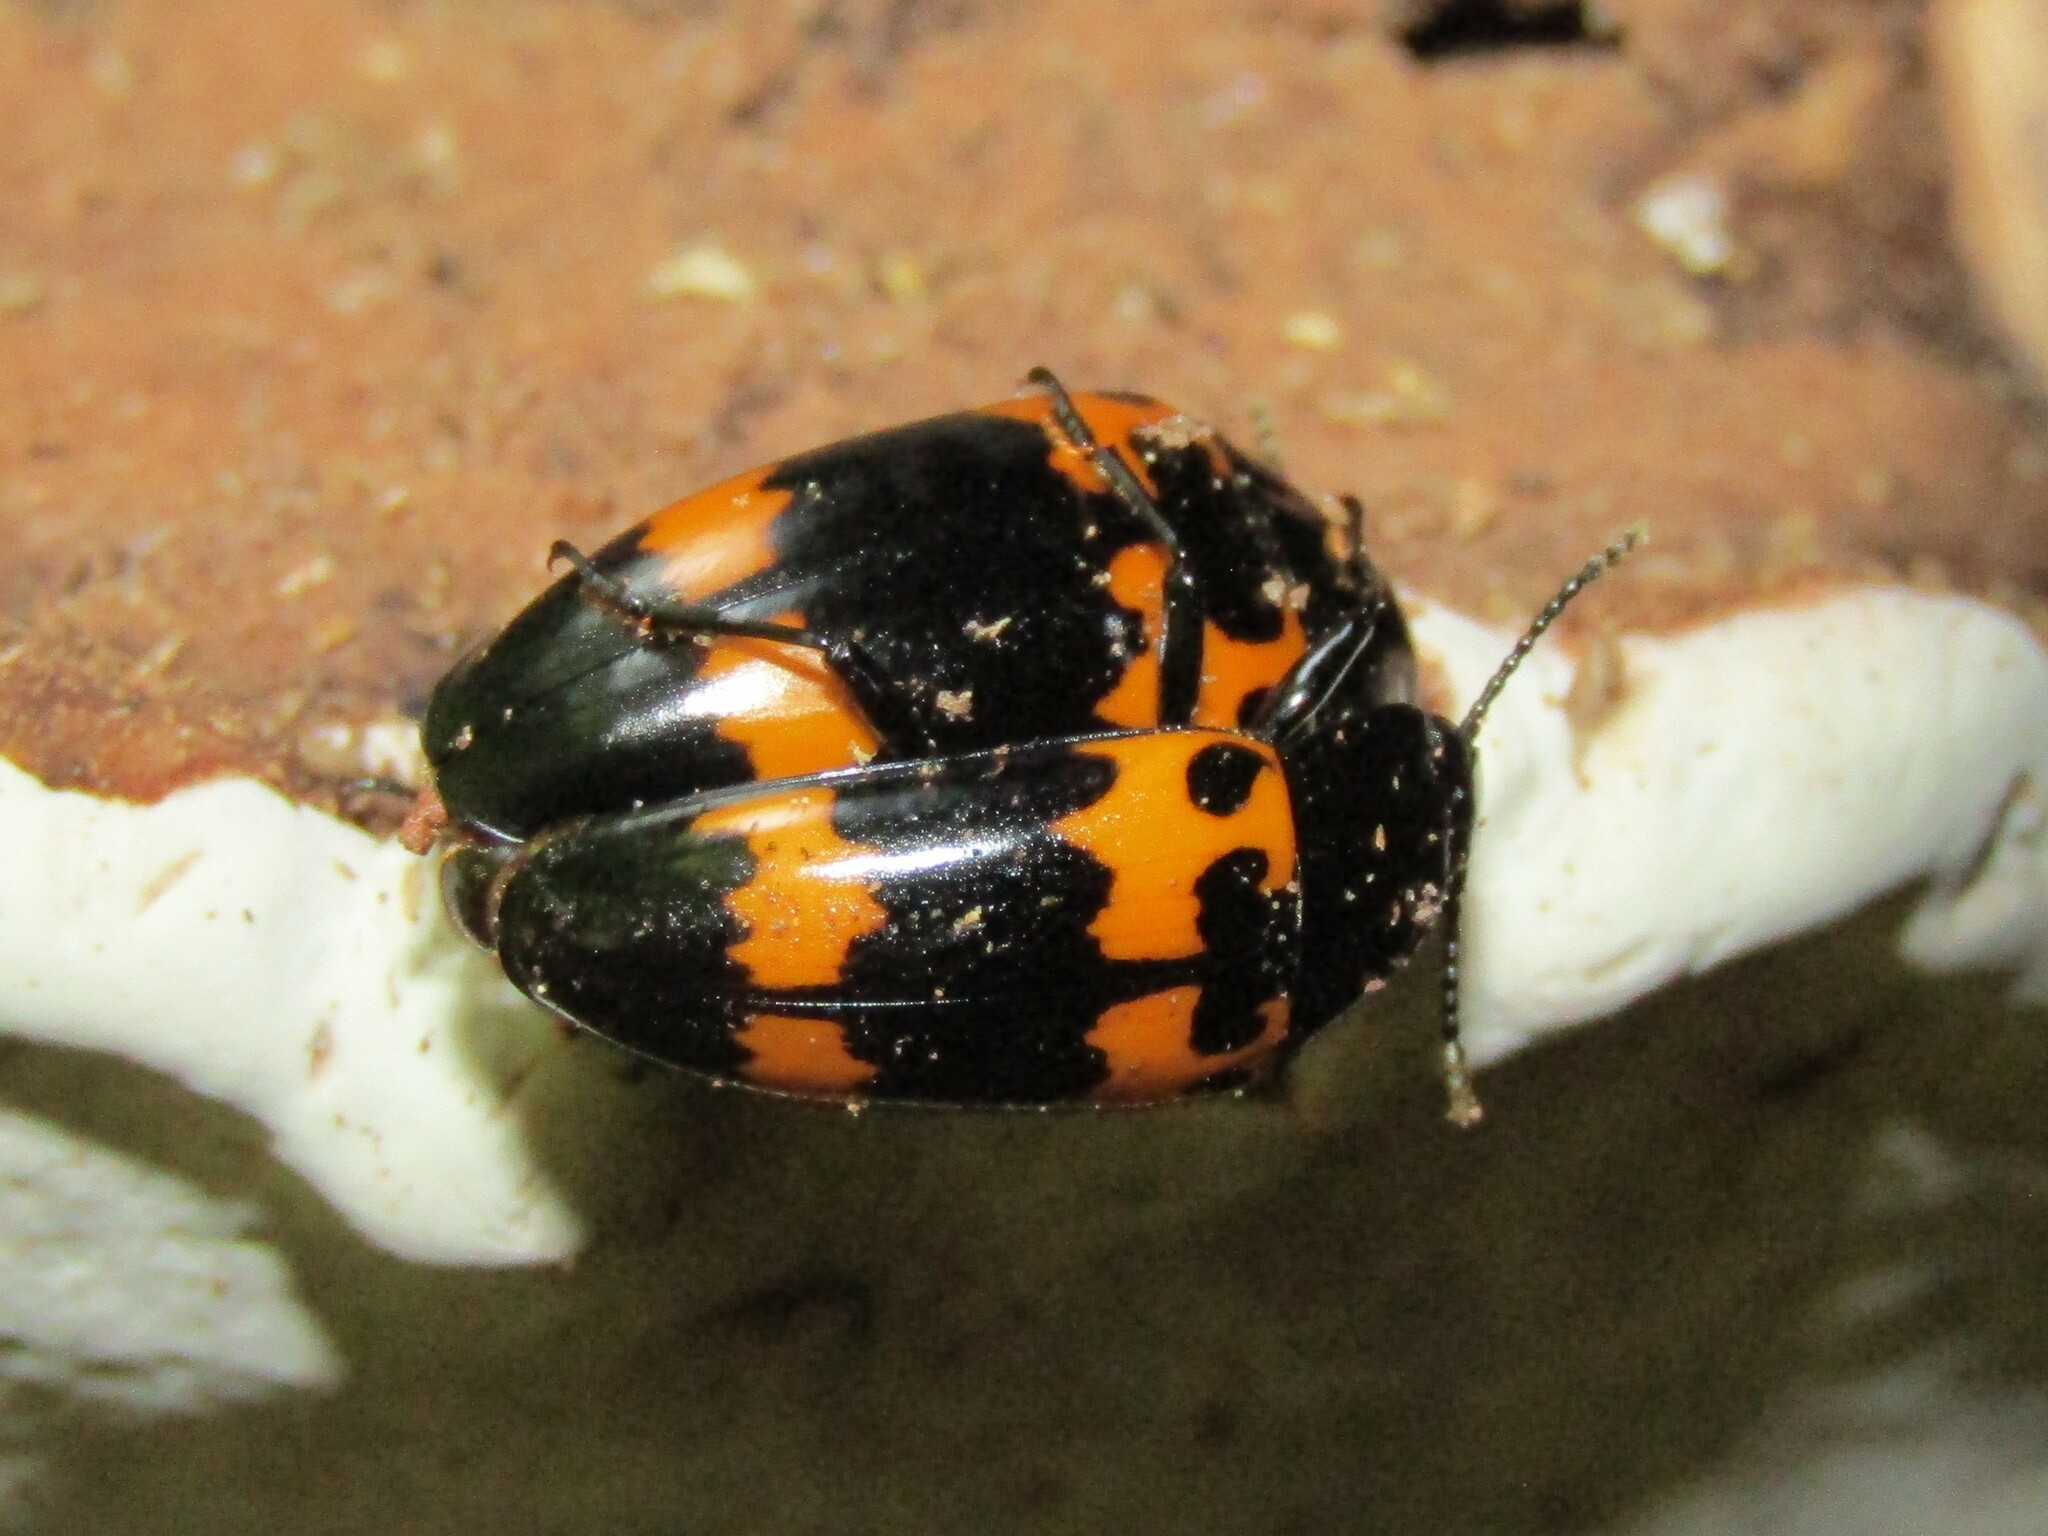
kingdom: Animalia
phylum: Arthropoda
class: Insecta
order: Coleoptera
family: Erotylidae
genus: Megalodacne
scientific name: Megalodacne heros
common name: Pleasing fungus beetle
